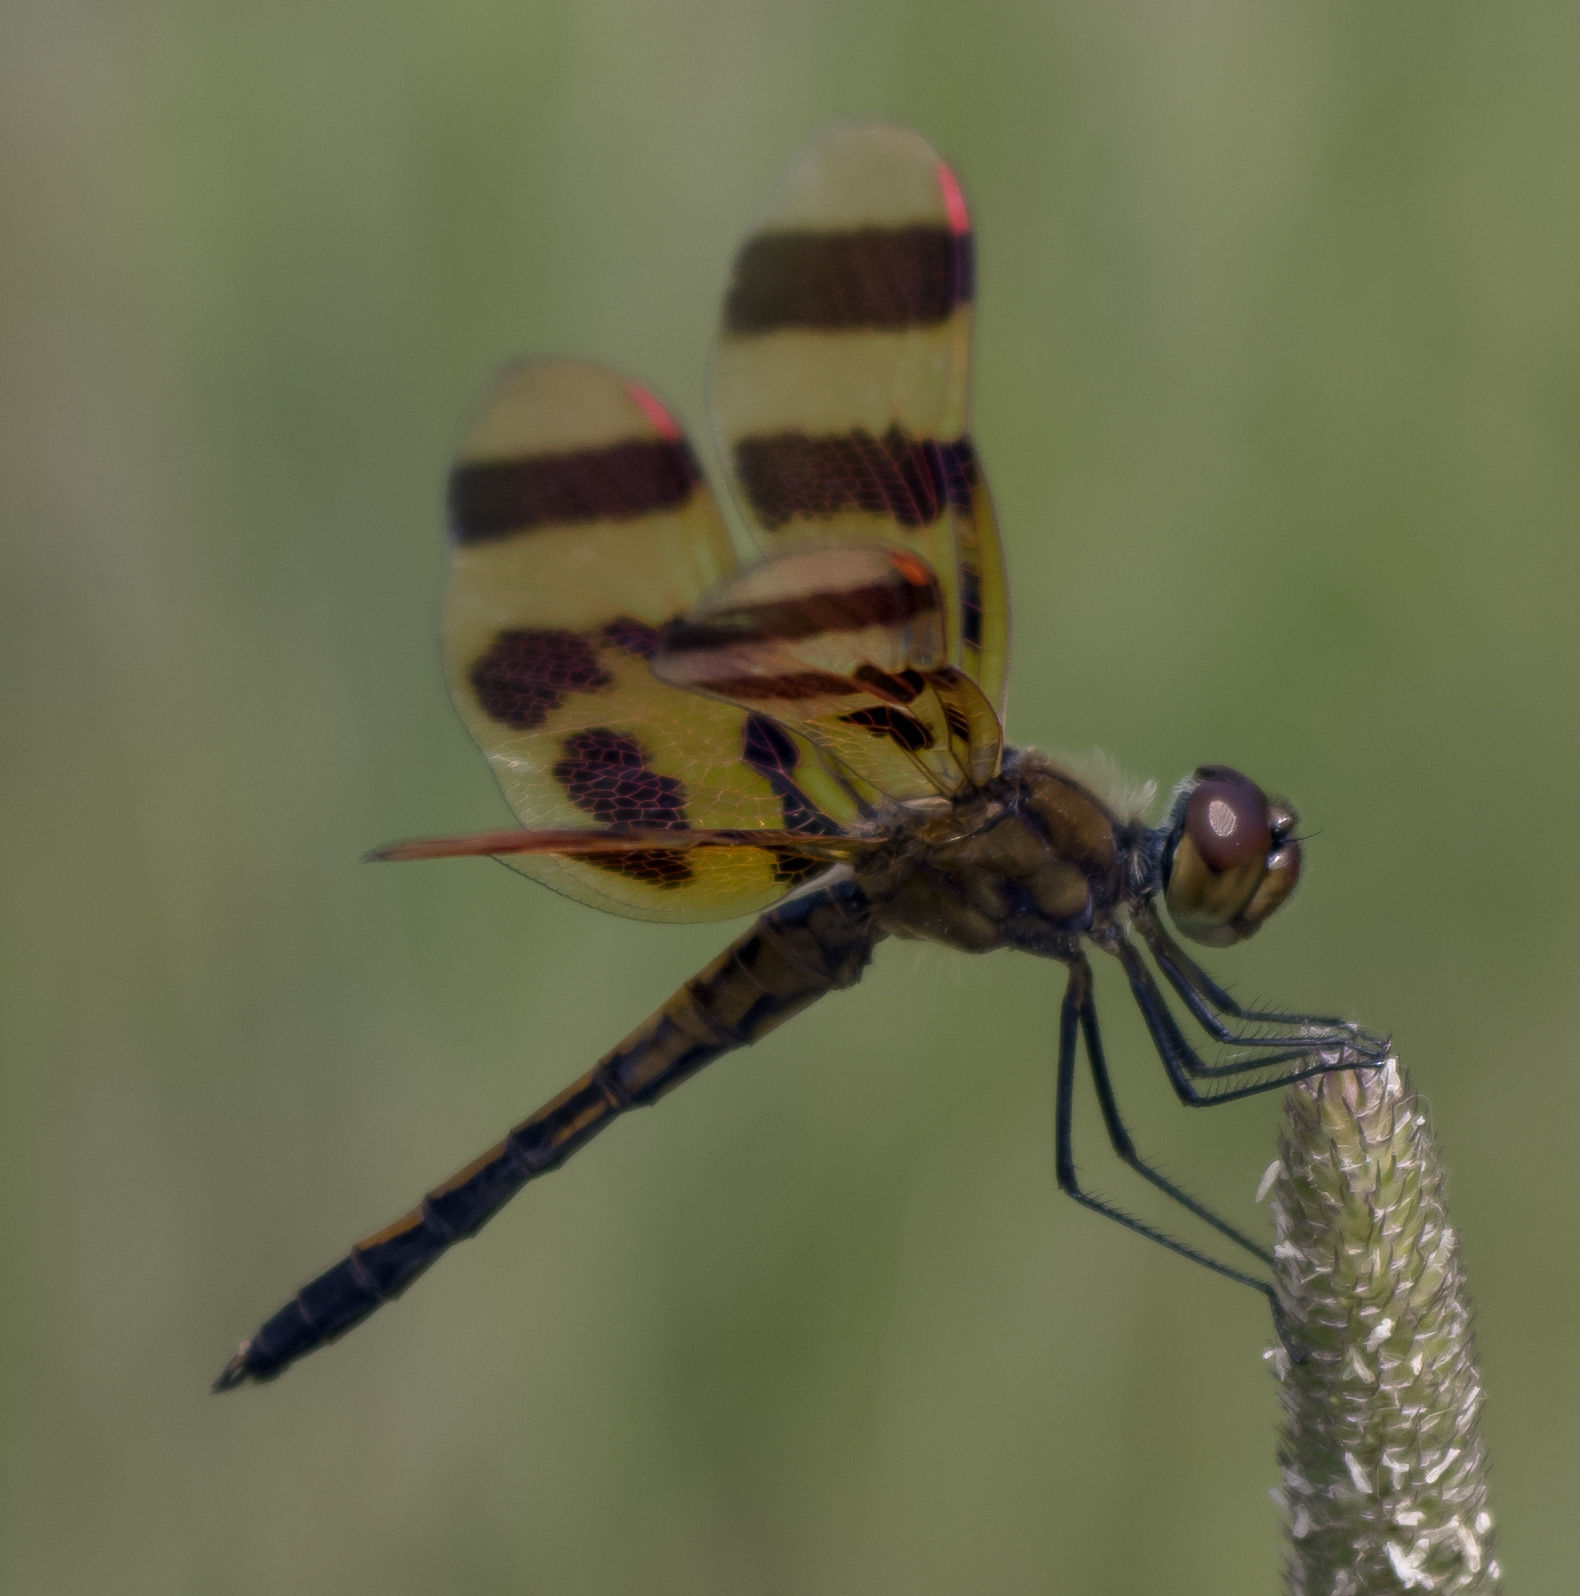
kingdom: Animalia
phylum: Arthropoda
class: Insecta
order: Odonata
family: Libellulidae
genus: Celithemis
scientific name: Celithemis eponina
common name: Halloween pennant
